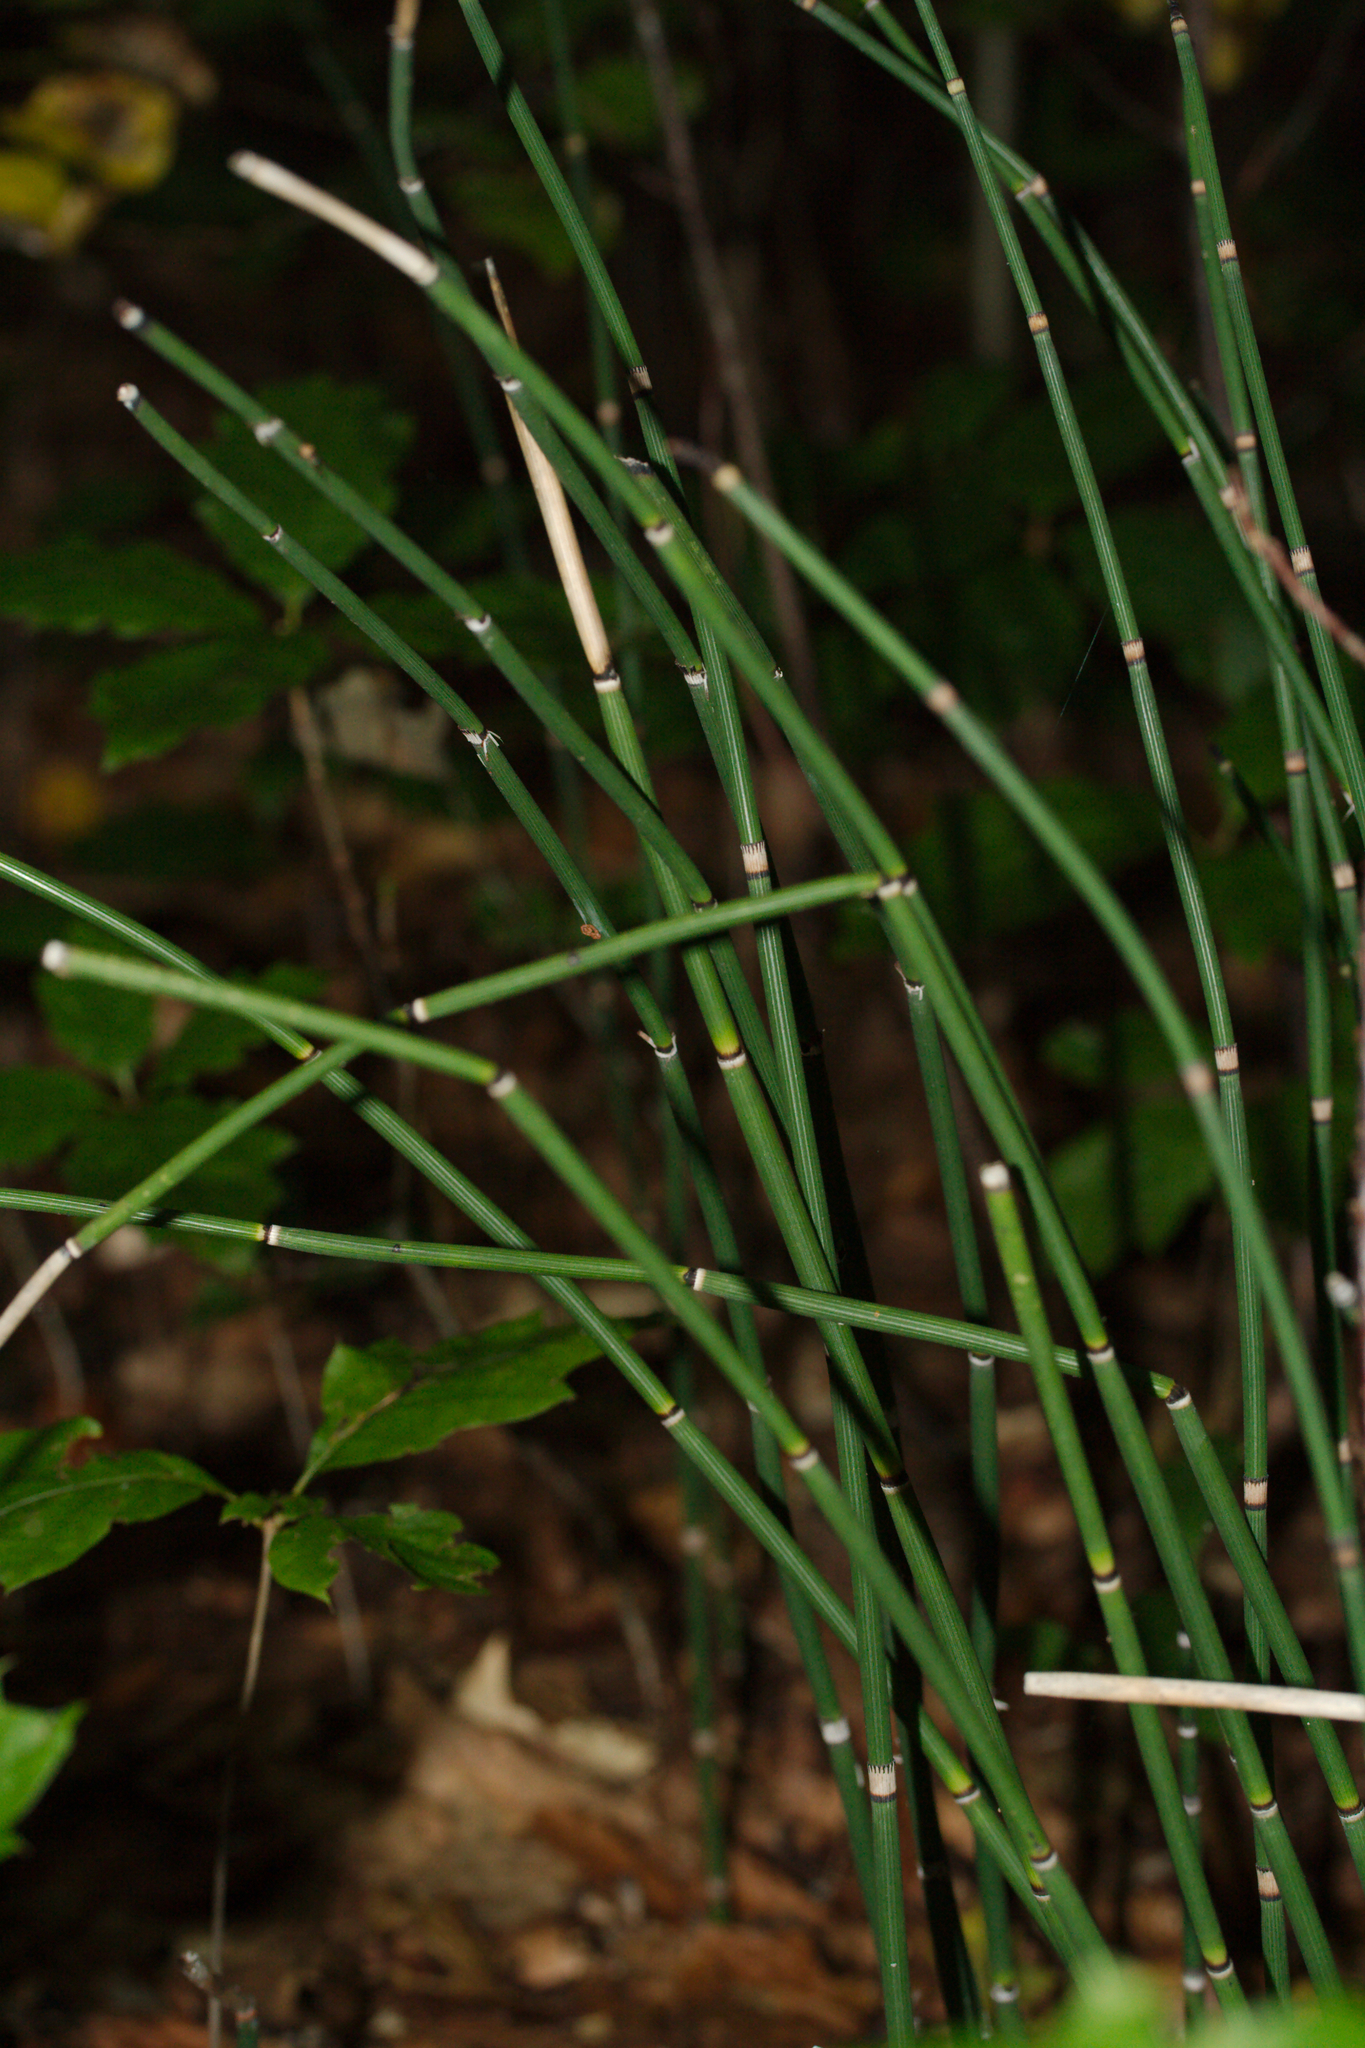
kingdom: Plantae
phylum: Tracheophyta
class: Polypodiopsida
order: Equisetales
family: Equisetaceae
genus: Equisetum
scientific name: Equisetum hyemale
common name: Rough horsetail
